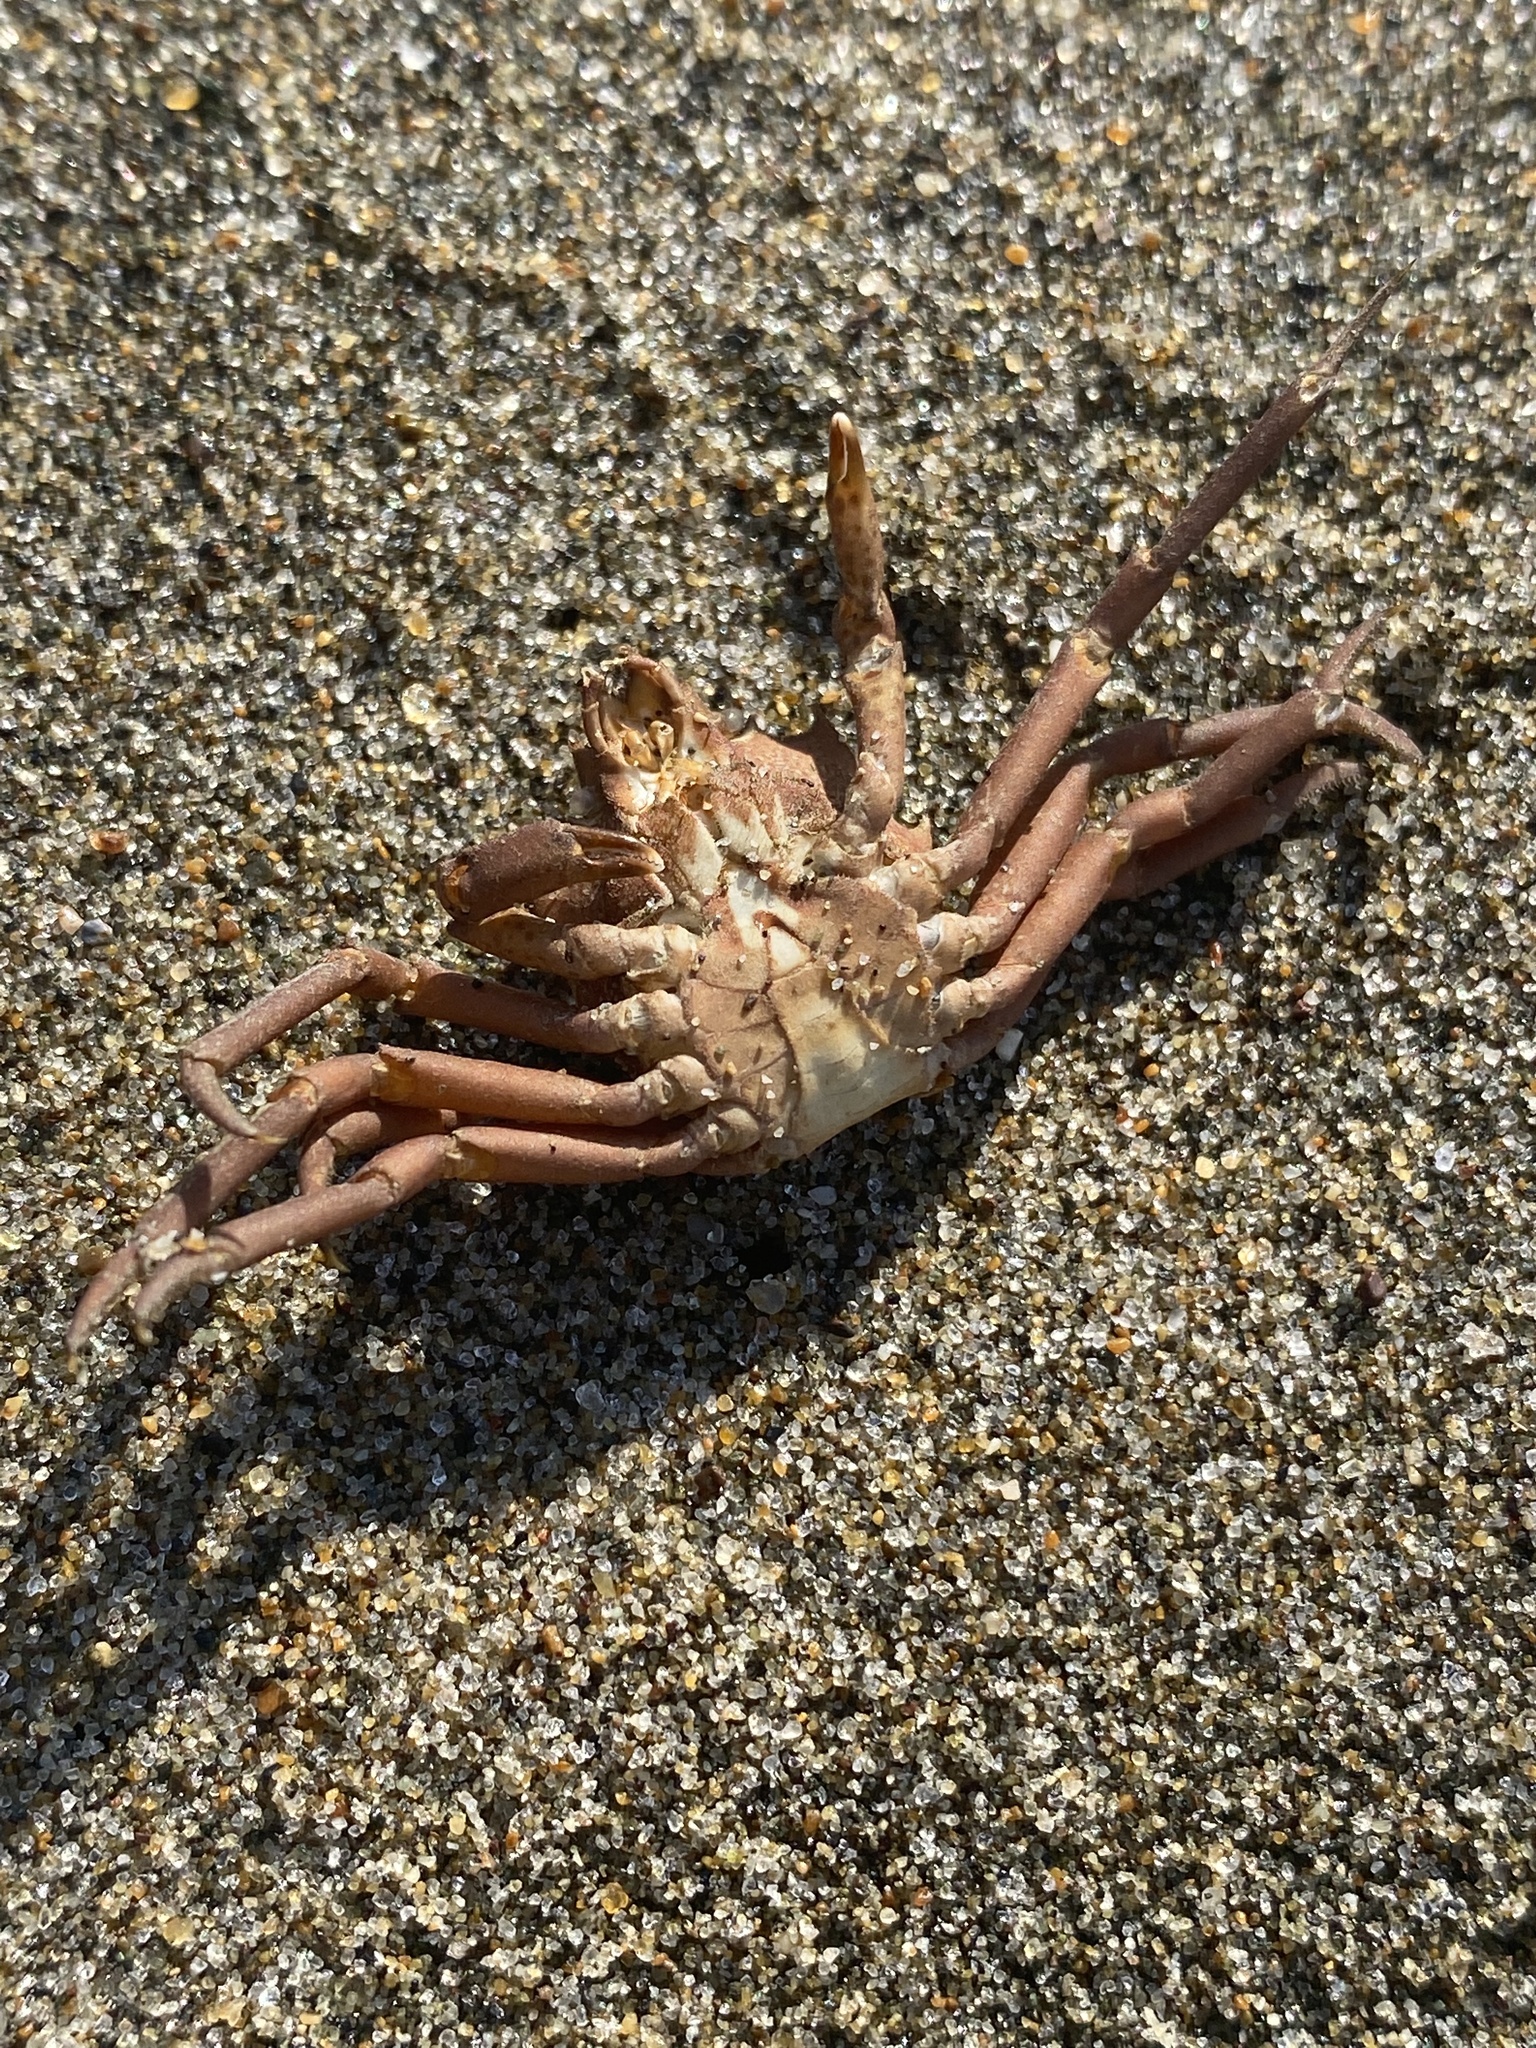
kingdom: Animalia
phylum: Arthropoda
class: Malacostraca
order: Decapoda
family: Epialtidae
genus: Pugettia
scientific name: Pugettia producta
